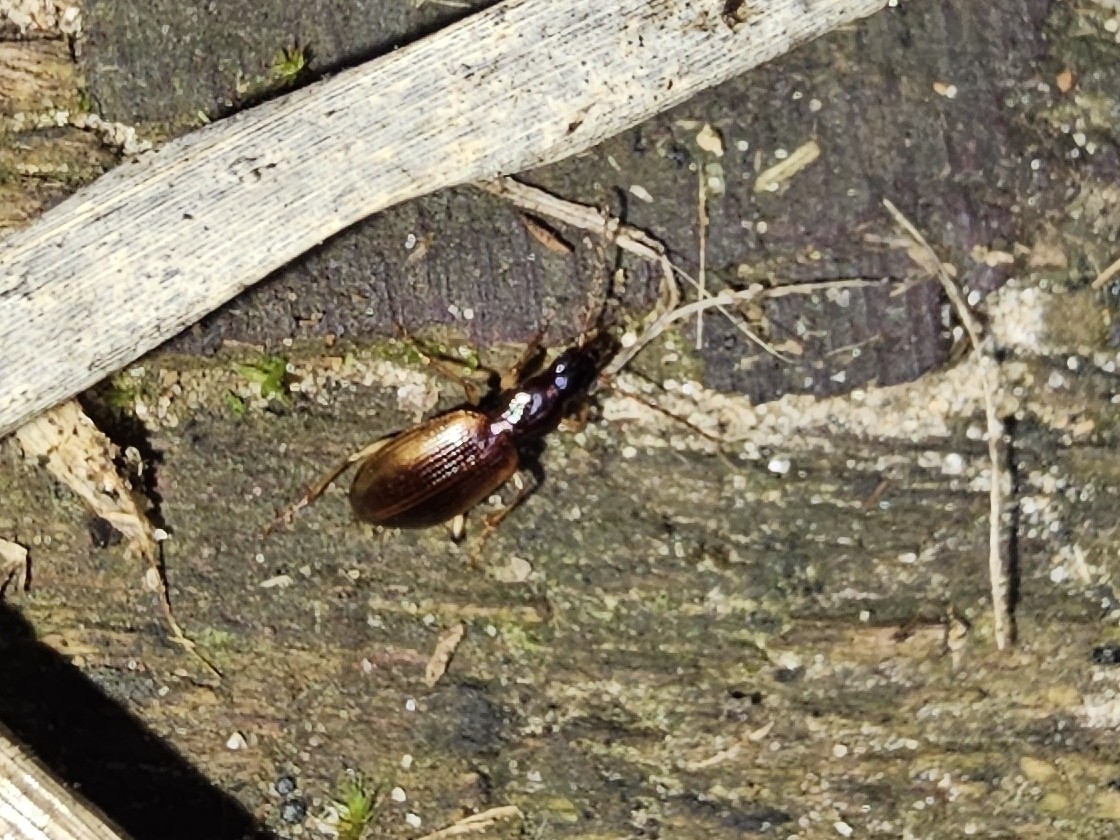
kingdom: Animalia
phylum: Arthropoda
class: Insecta
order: Coleoptera
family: Carabidae
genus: Oxypselaphus
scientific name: Oxypselaphus obscurus
